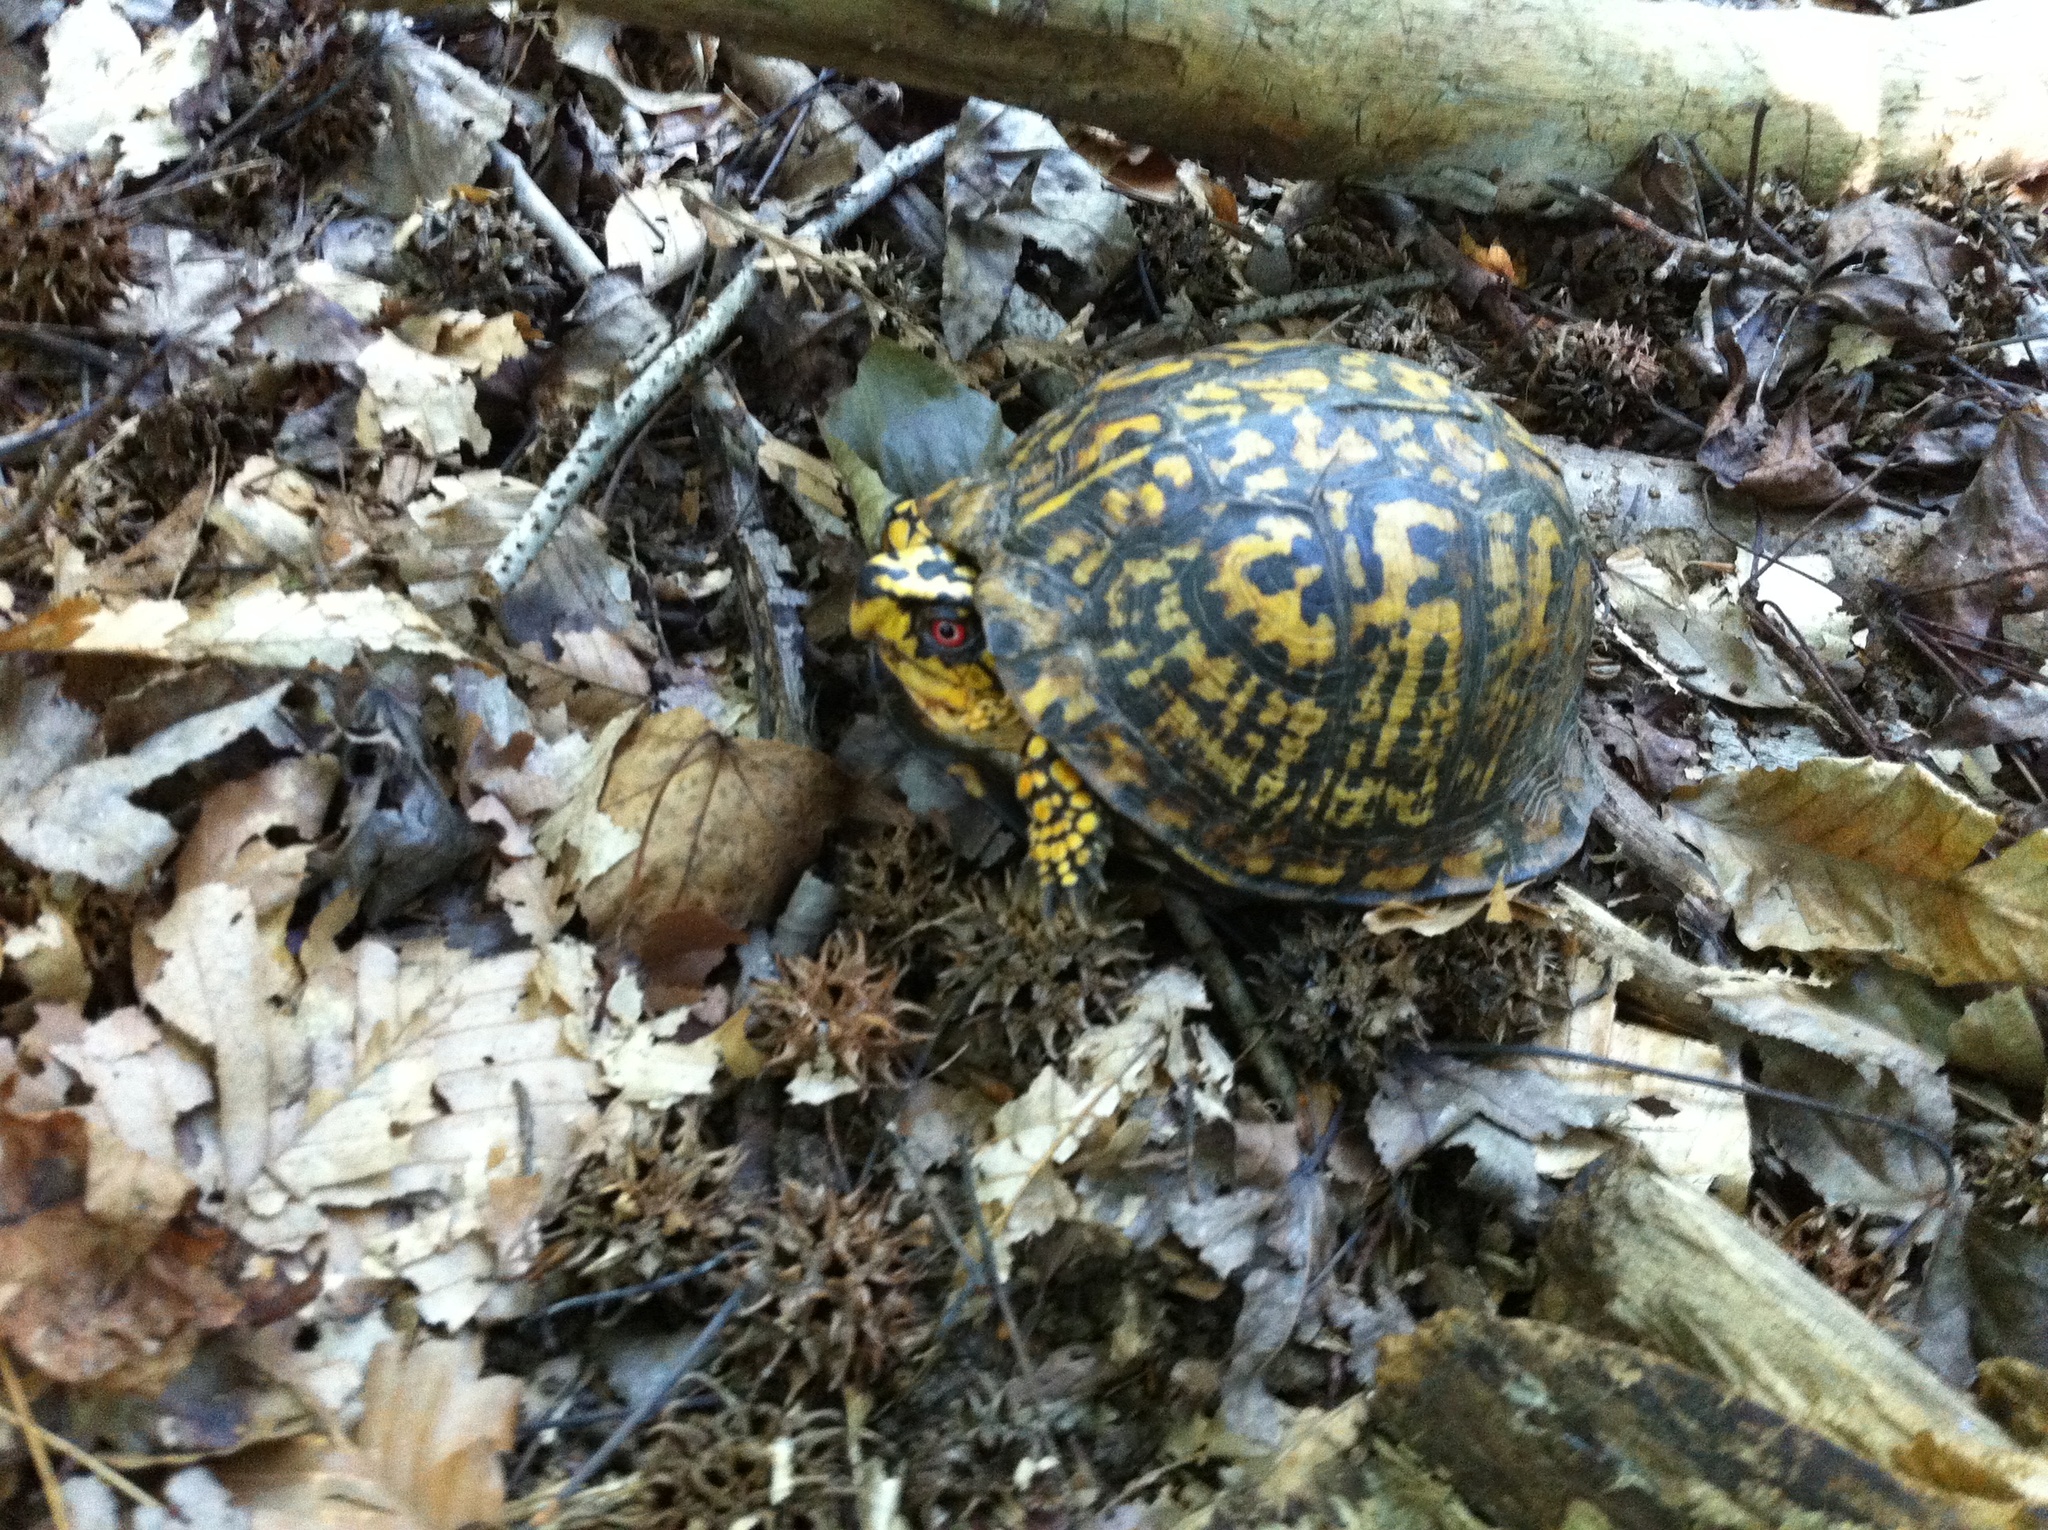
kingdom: Animalia
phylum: Chordata
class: Testudines
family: Emydidae
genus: Terrapene
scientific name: Terrapene carolina
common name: Common box turtle
